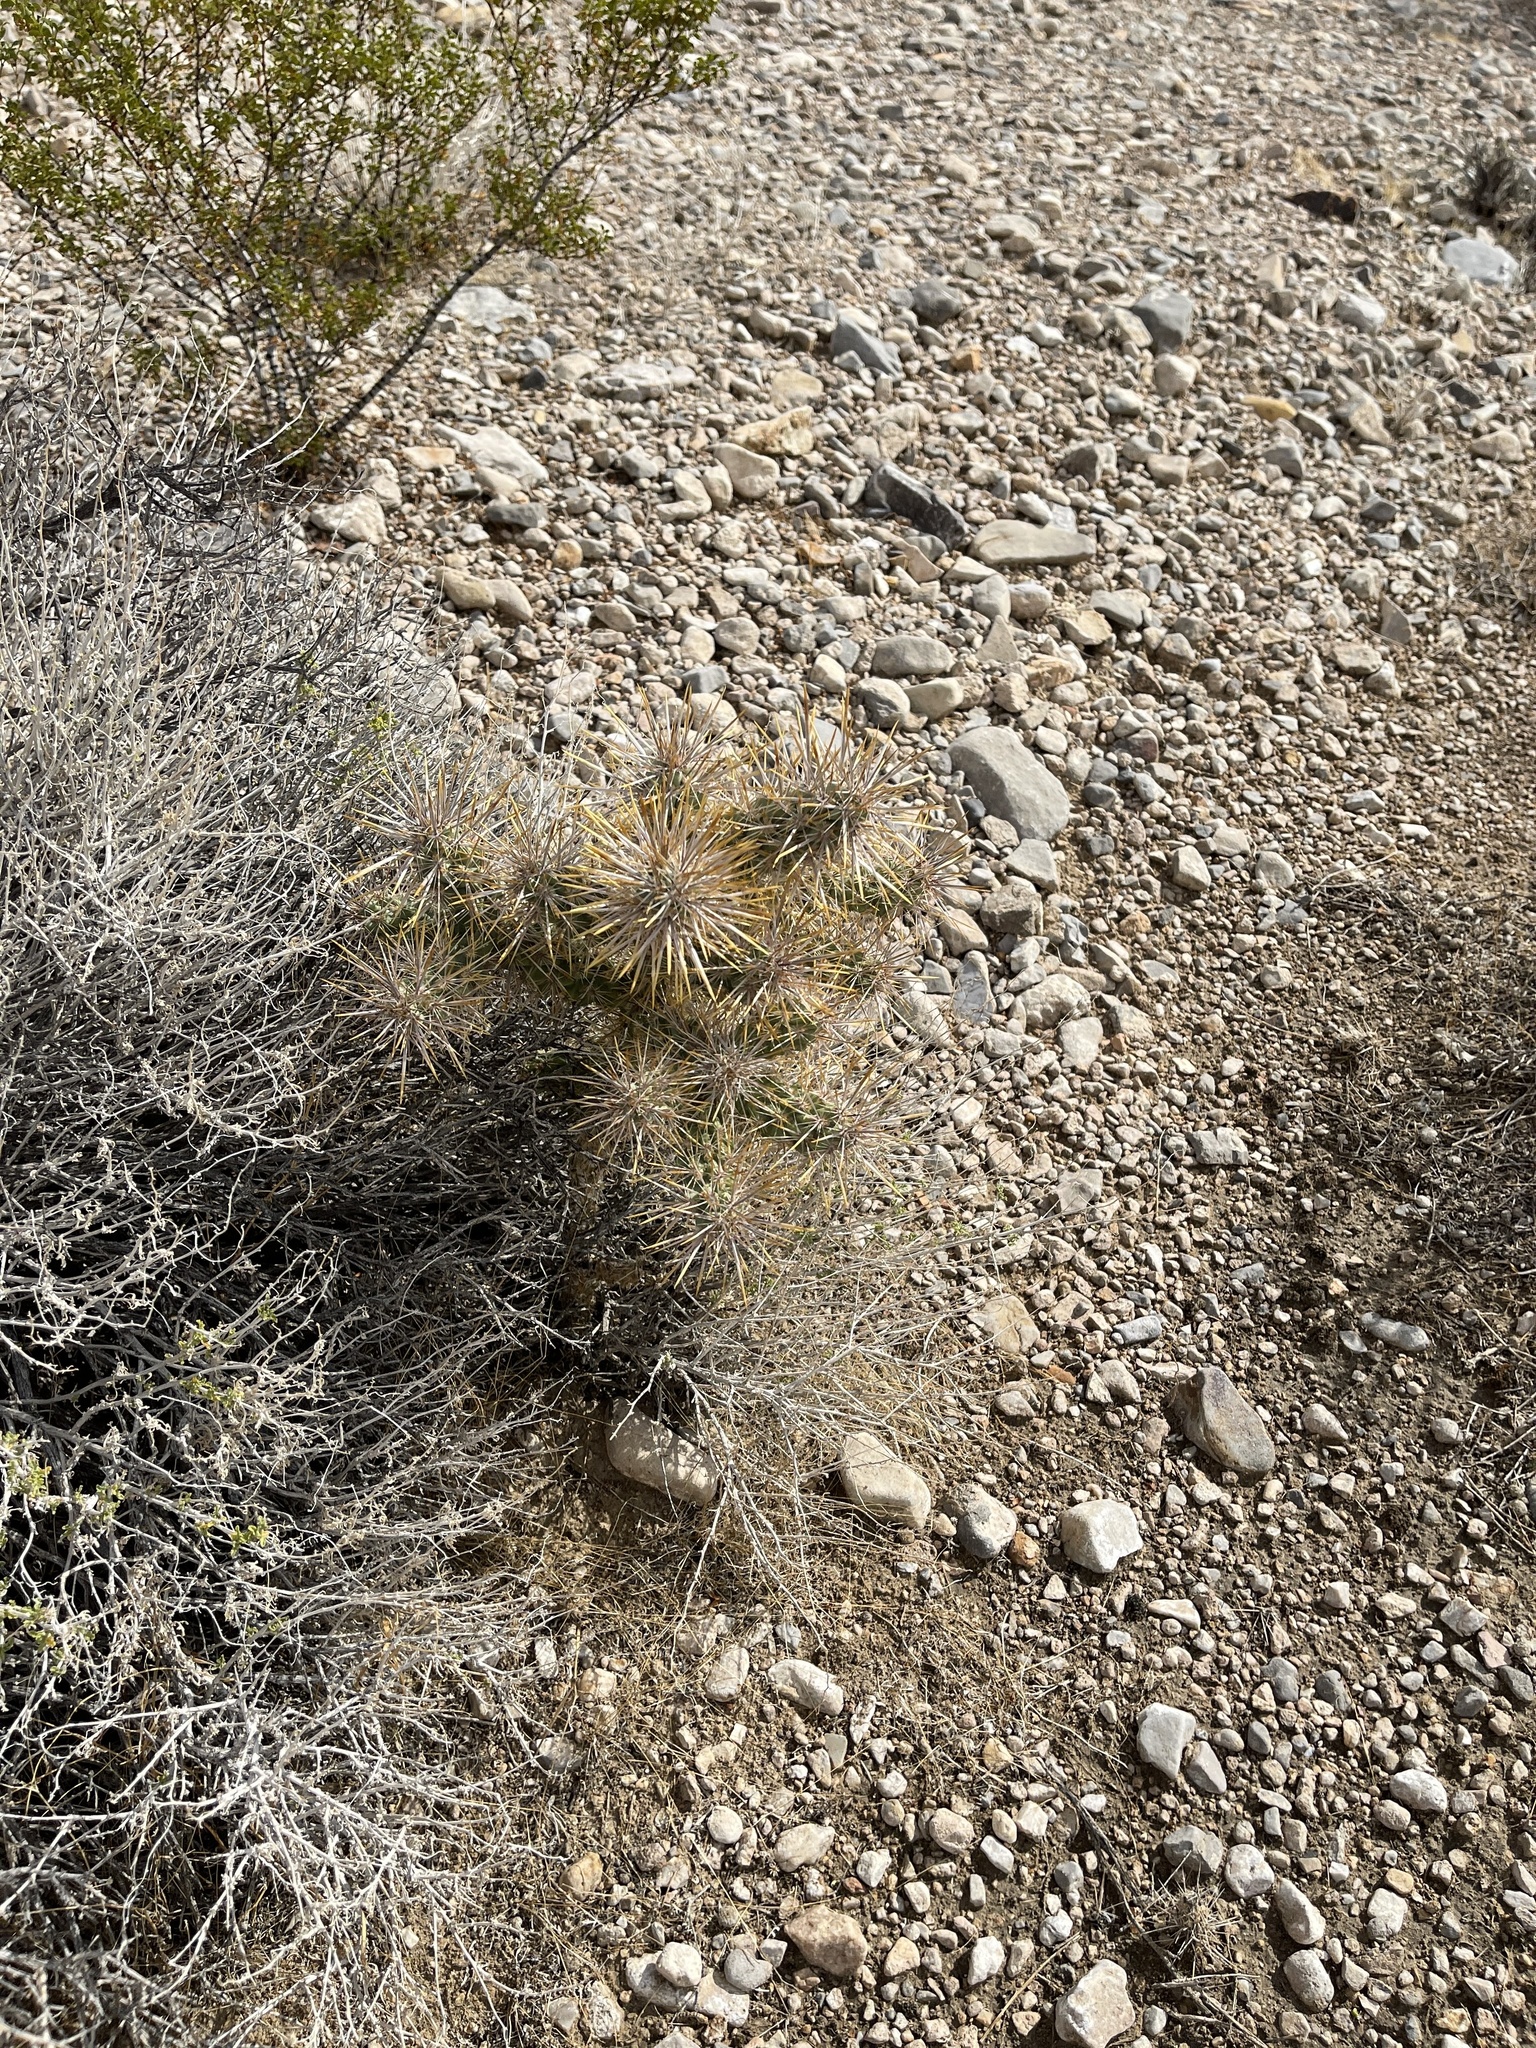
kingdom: Plantae
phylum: Tracheophyta
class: Magnoliopsida
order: Caryophyllales
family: Cactaceae
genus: Cylindropuntia
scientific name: Cylindropuntia echinocarpa
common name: Ground cholla
